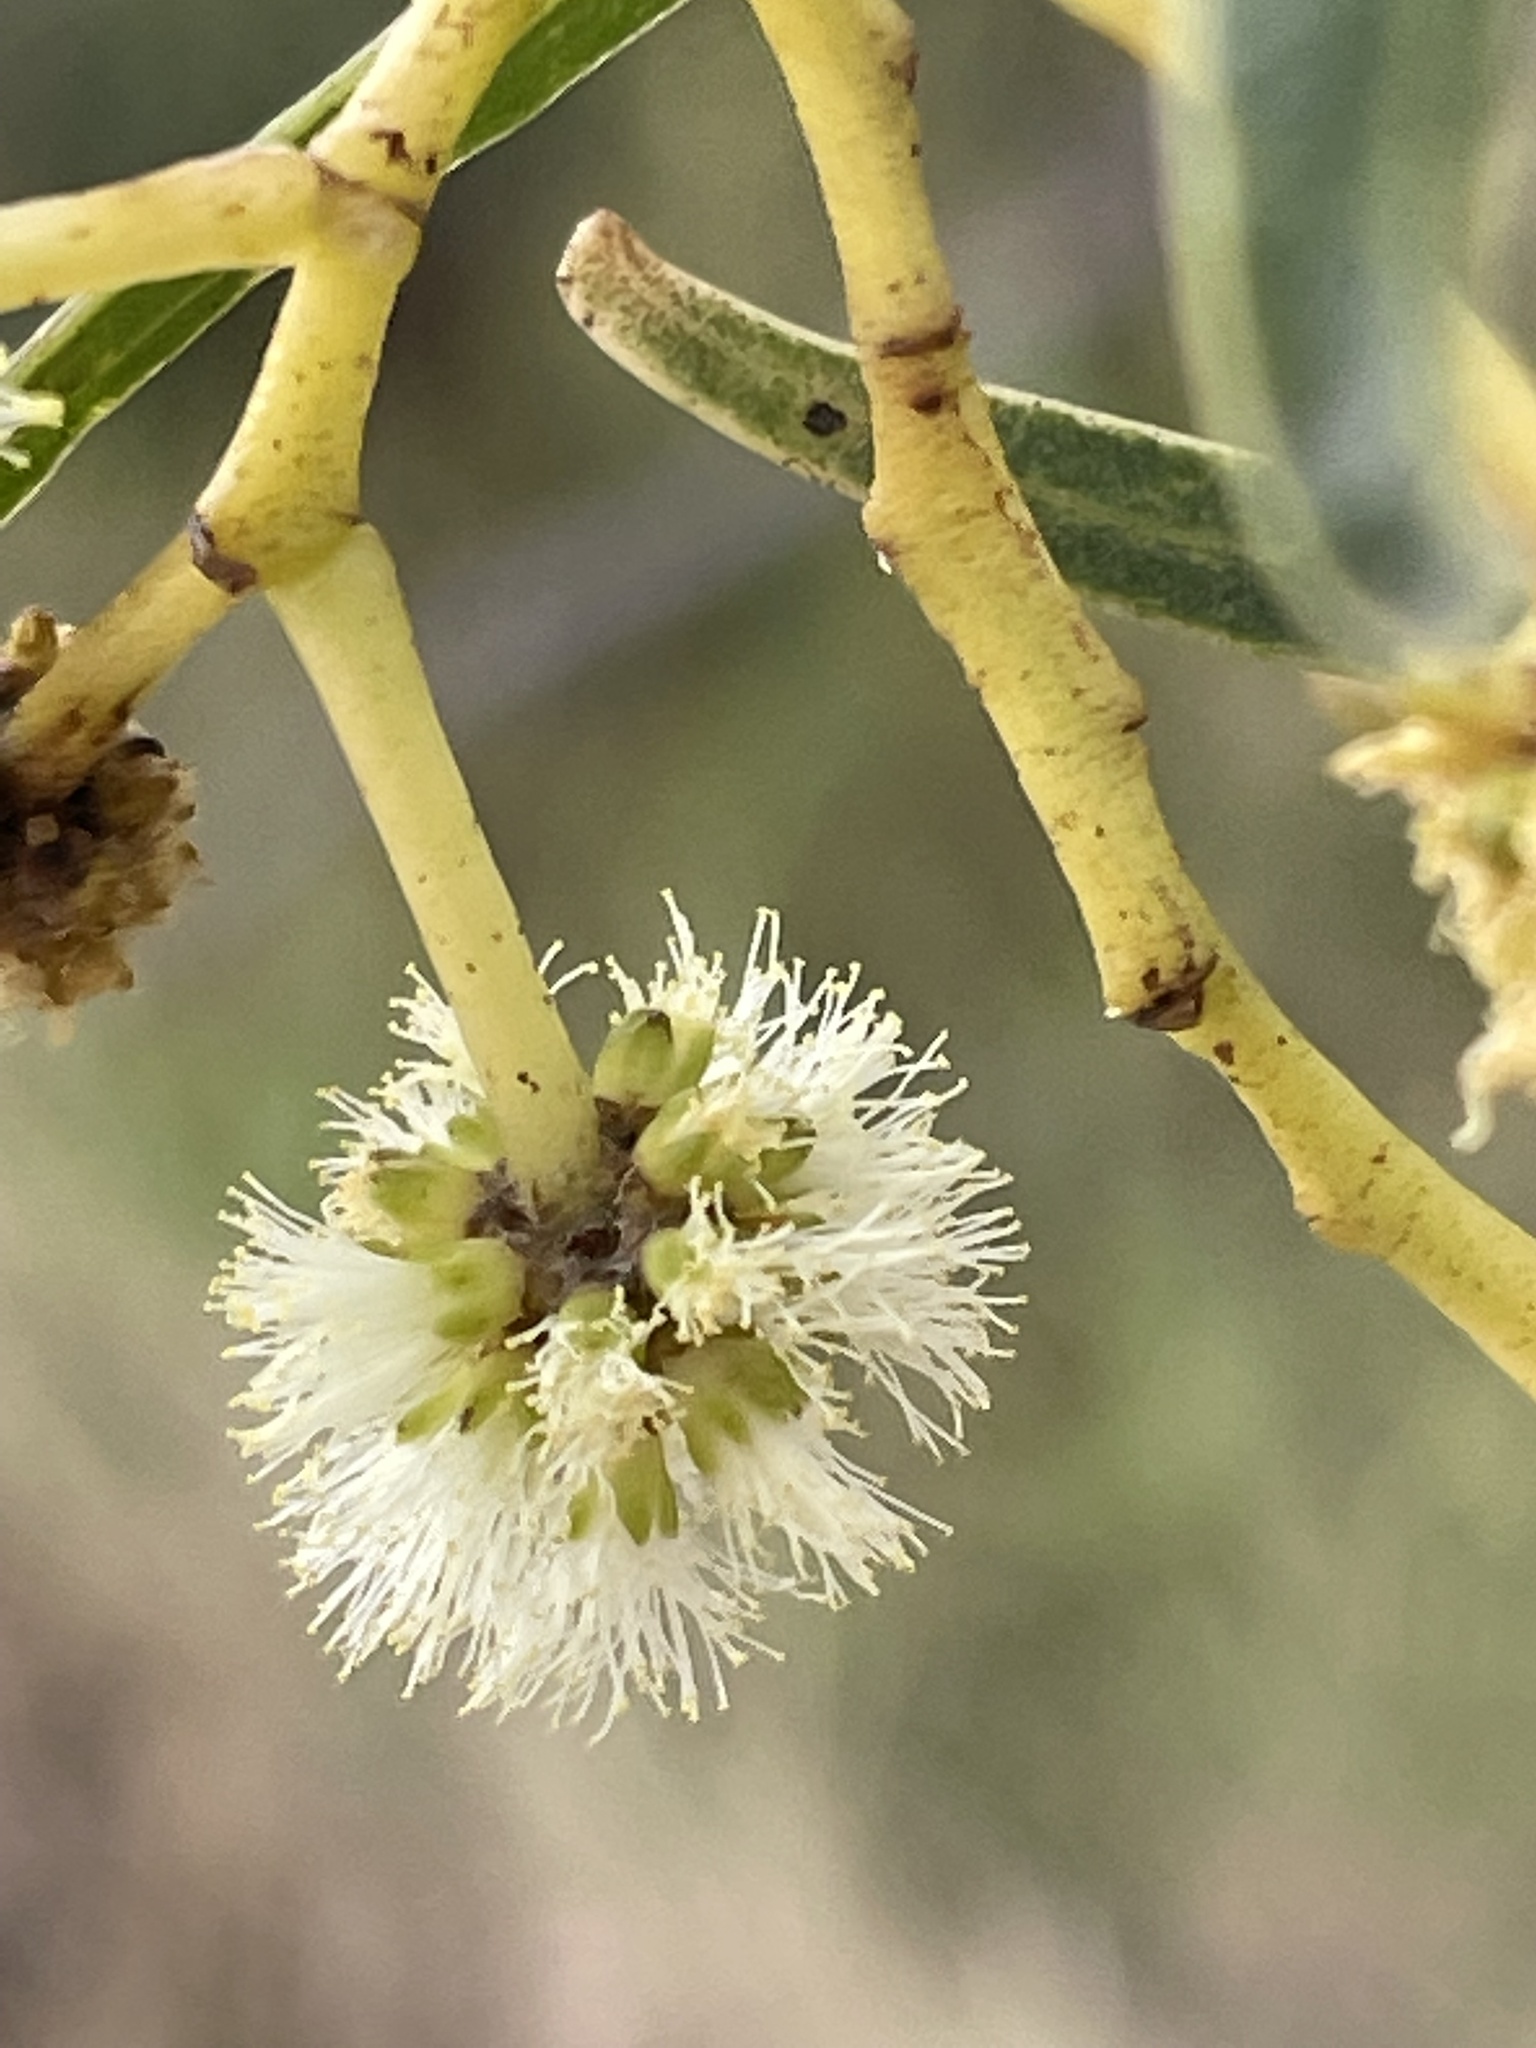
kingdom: Plantae
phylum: Tracheophyta
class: Magnoliopsida
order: Fabales
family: Fabaceae
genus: Acacia
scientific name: Acacia salicina
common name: Broughton willow wattle
